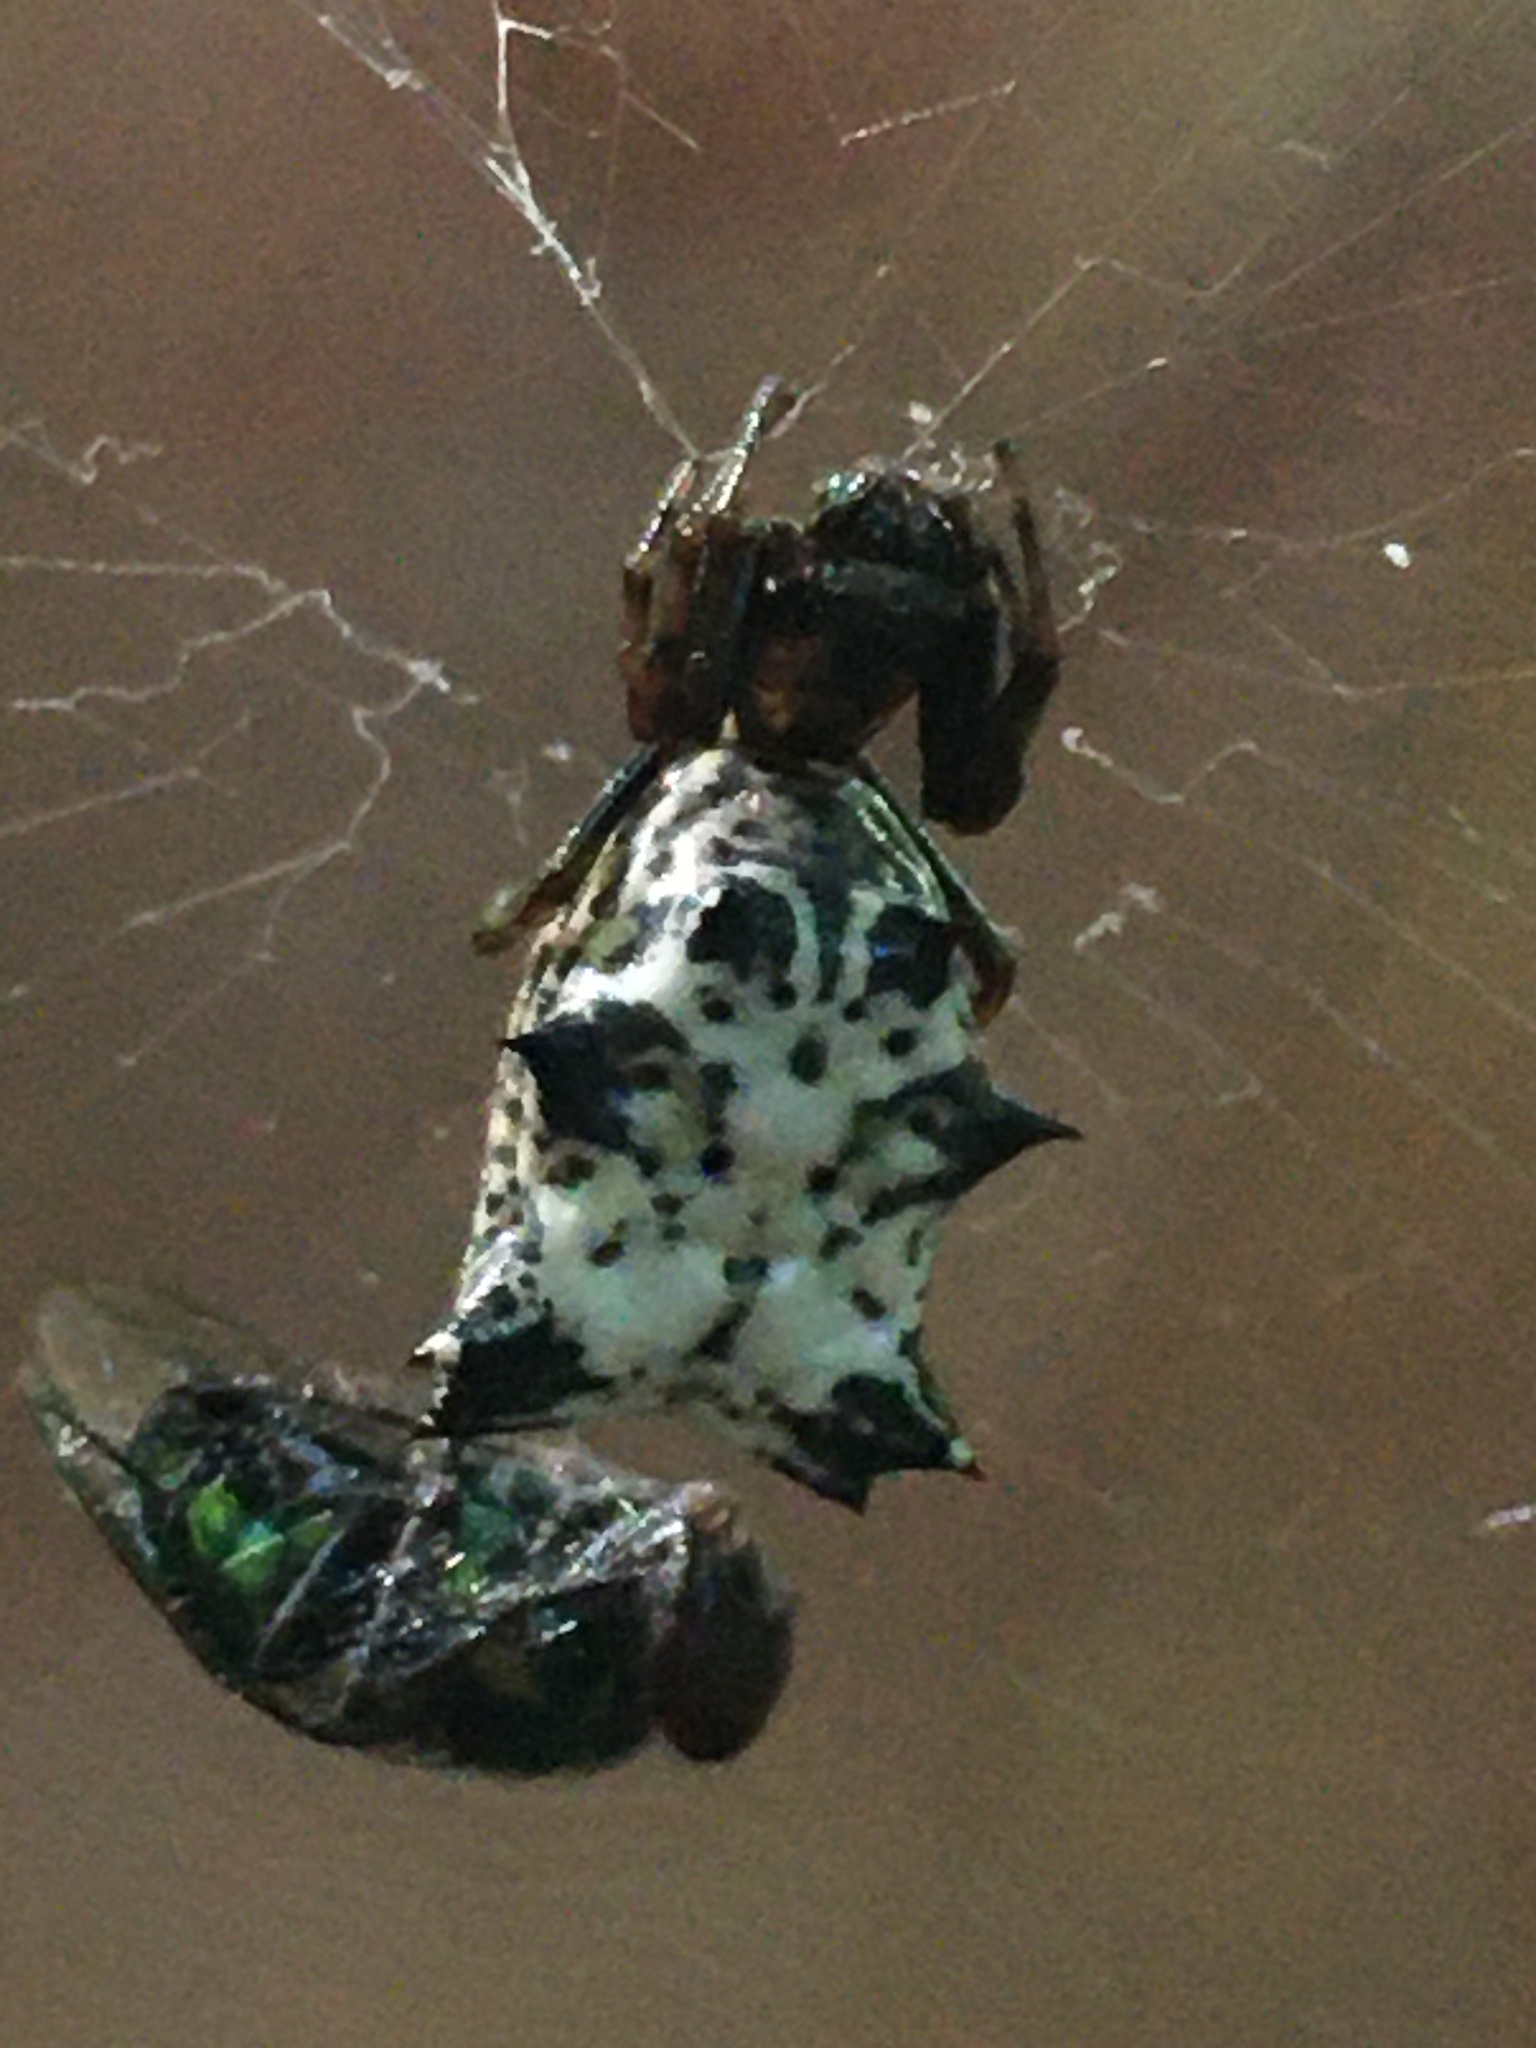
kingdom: Animalia
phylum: Arthropoda
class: Arachnida
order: Araneae
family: Araneidae
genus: Micrathena
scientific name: Micrathena gracilis
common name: Orb weavers
